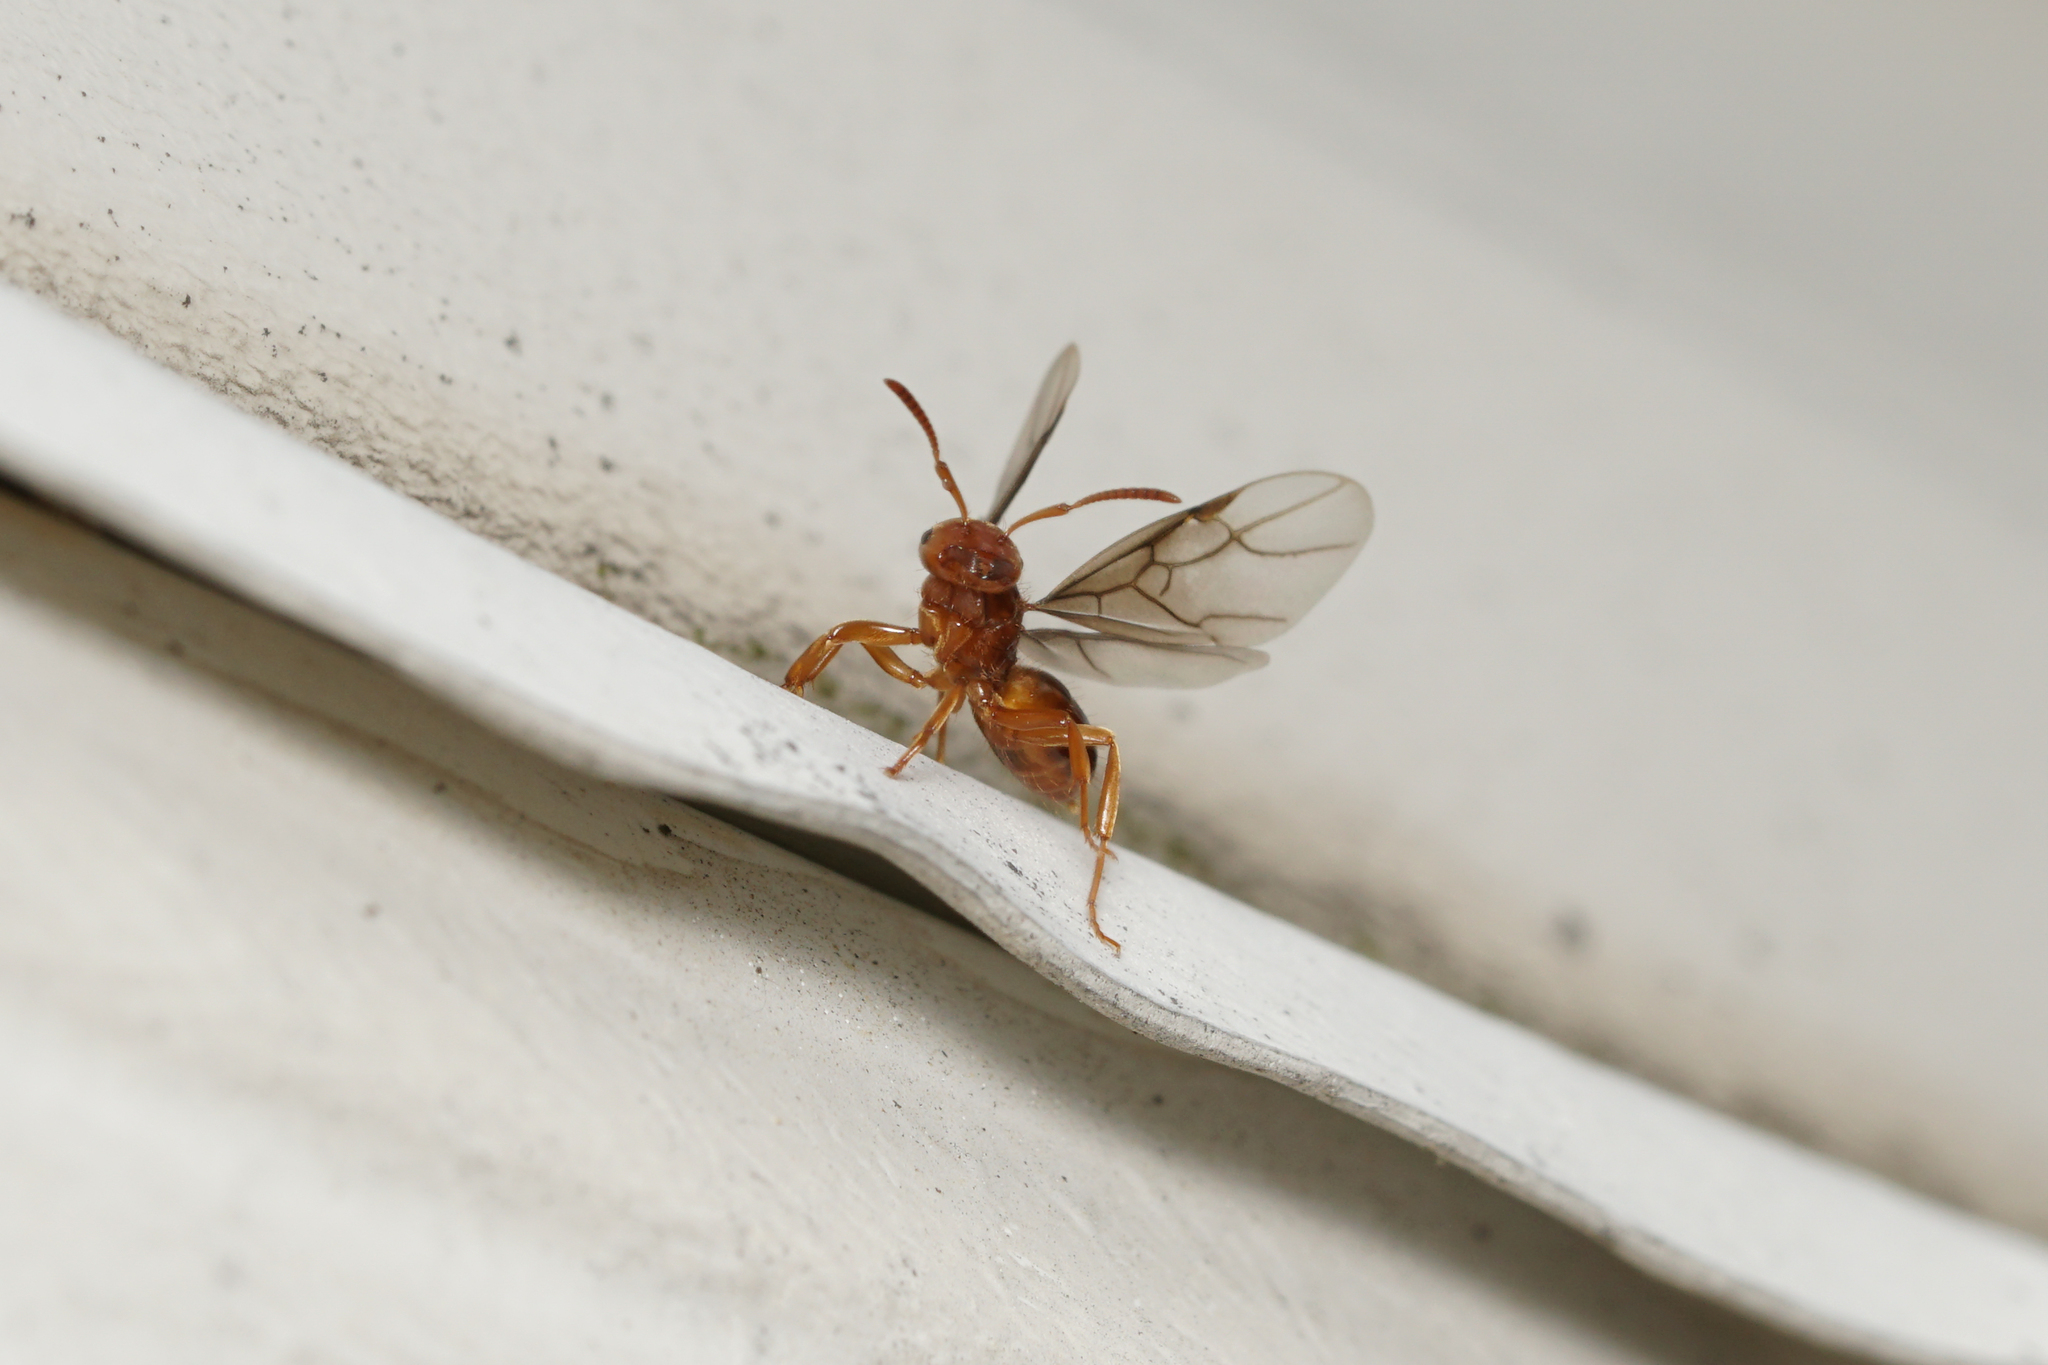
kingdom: Animalia
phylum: Arthropoda
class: Insecta
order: Hymenoptera
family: Formicidae
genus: Acanthomyops
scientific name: Acanthomyops interjectus
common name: Larger yellow ant
